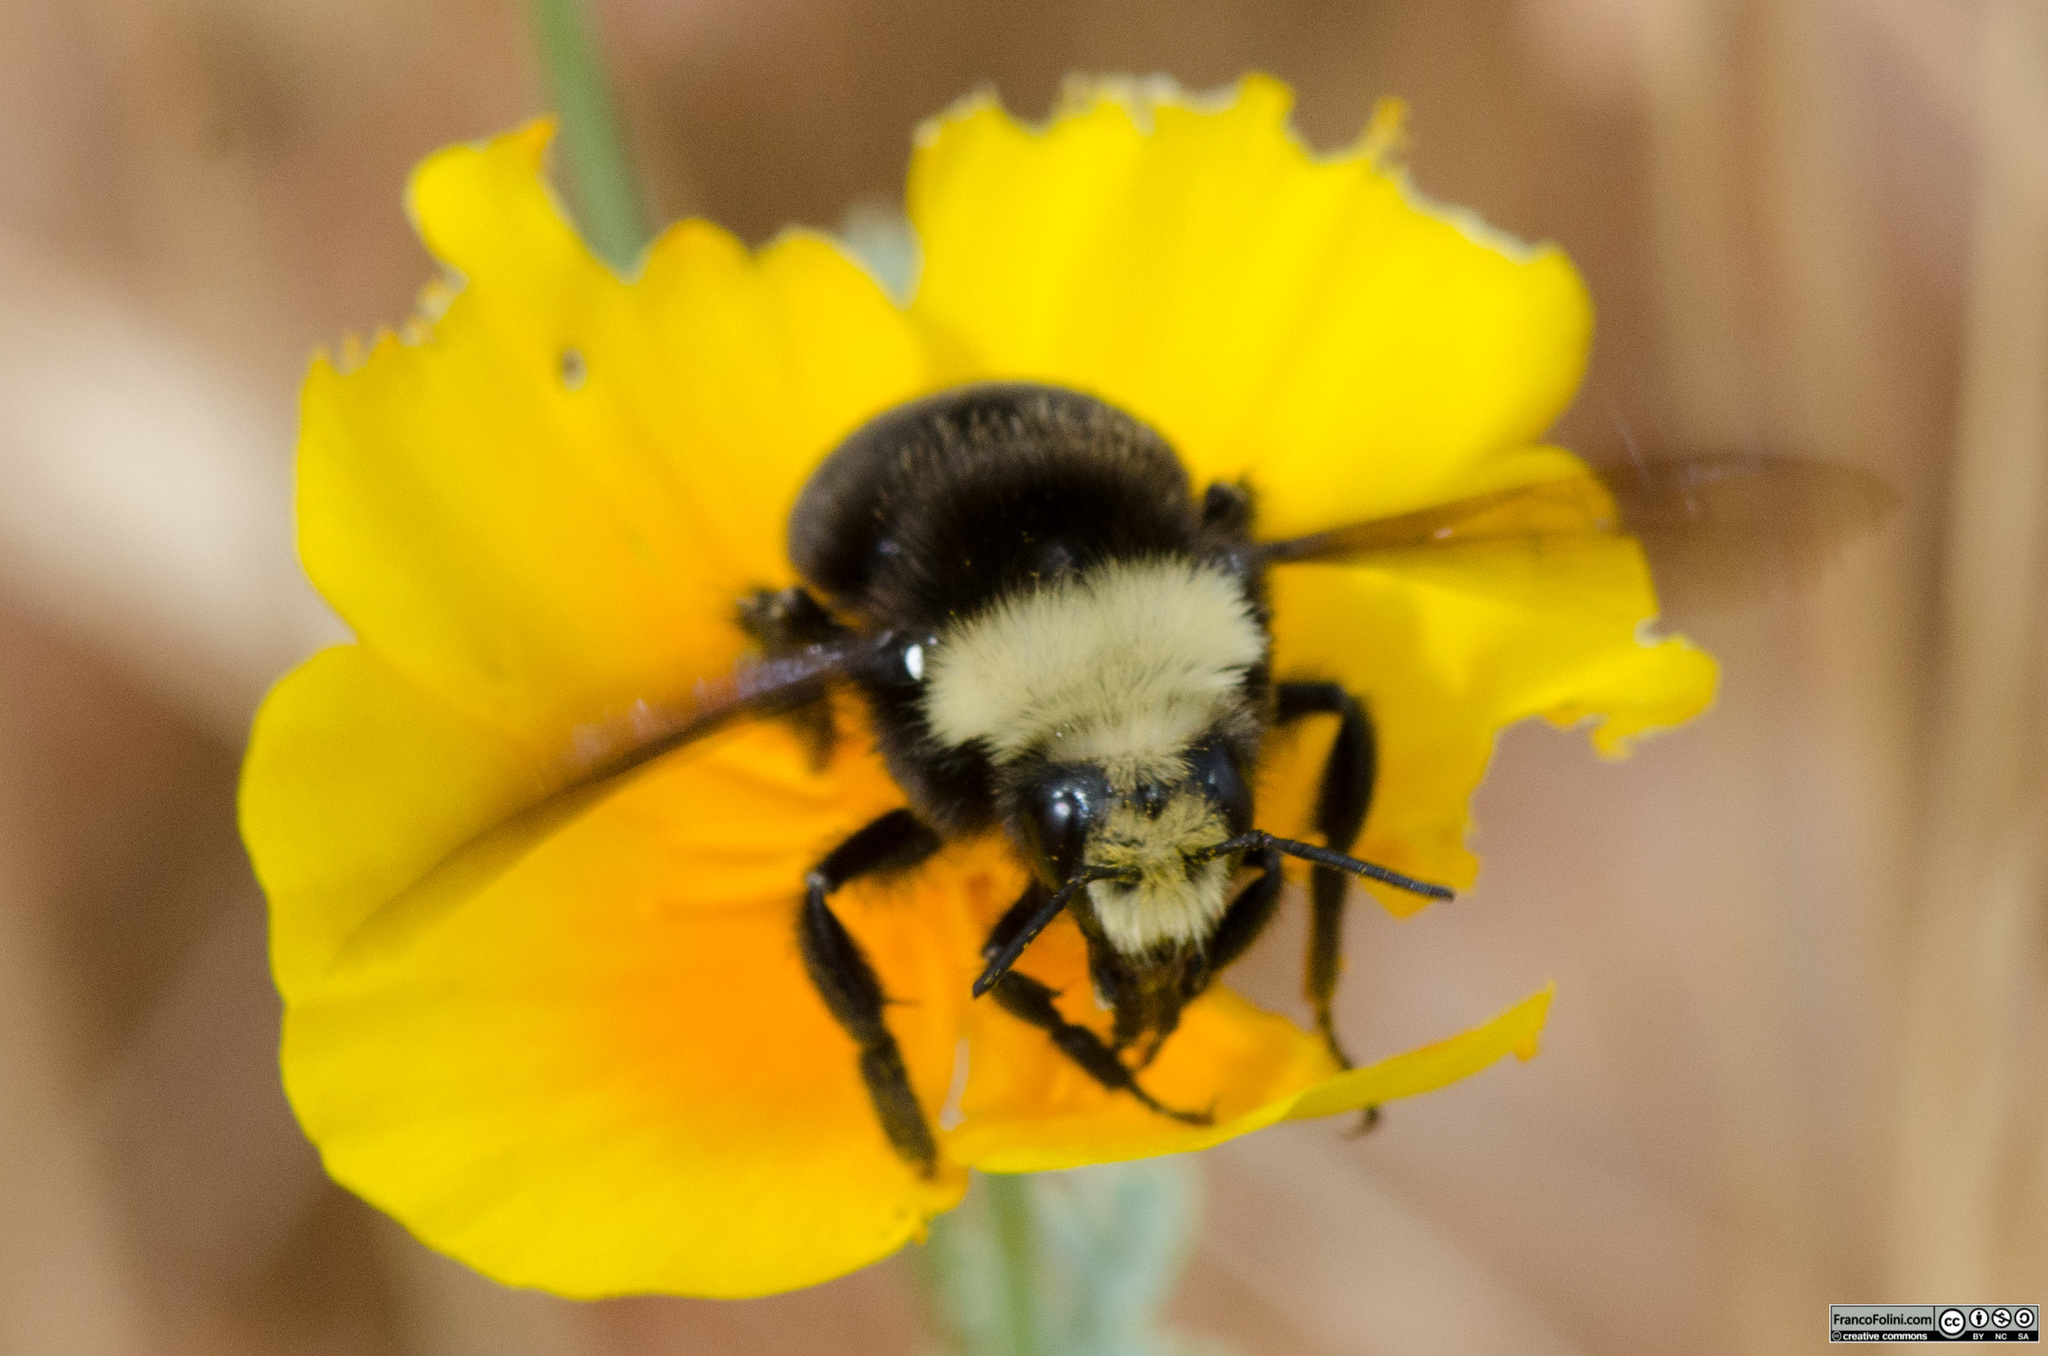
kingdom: Animalia
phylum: Arthropoda
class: Insecta
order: Hymenoptera
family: Apidae
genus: Bombus
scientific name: Bombus vosnesenskii
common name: Vosnesensky bumble bee
